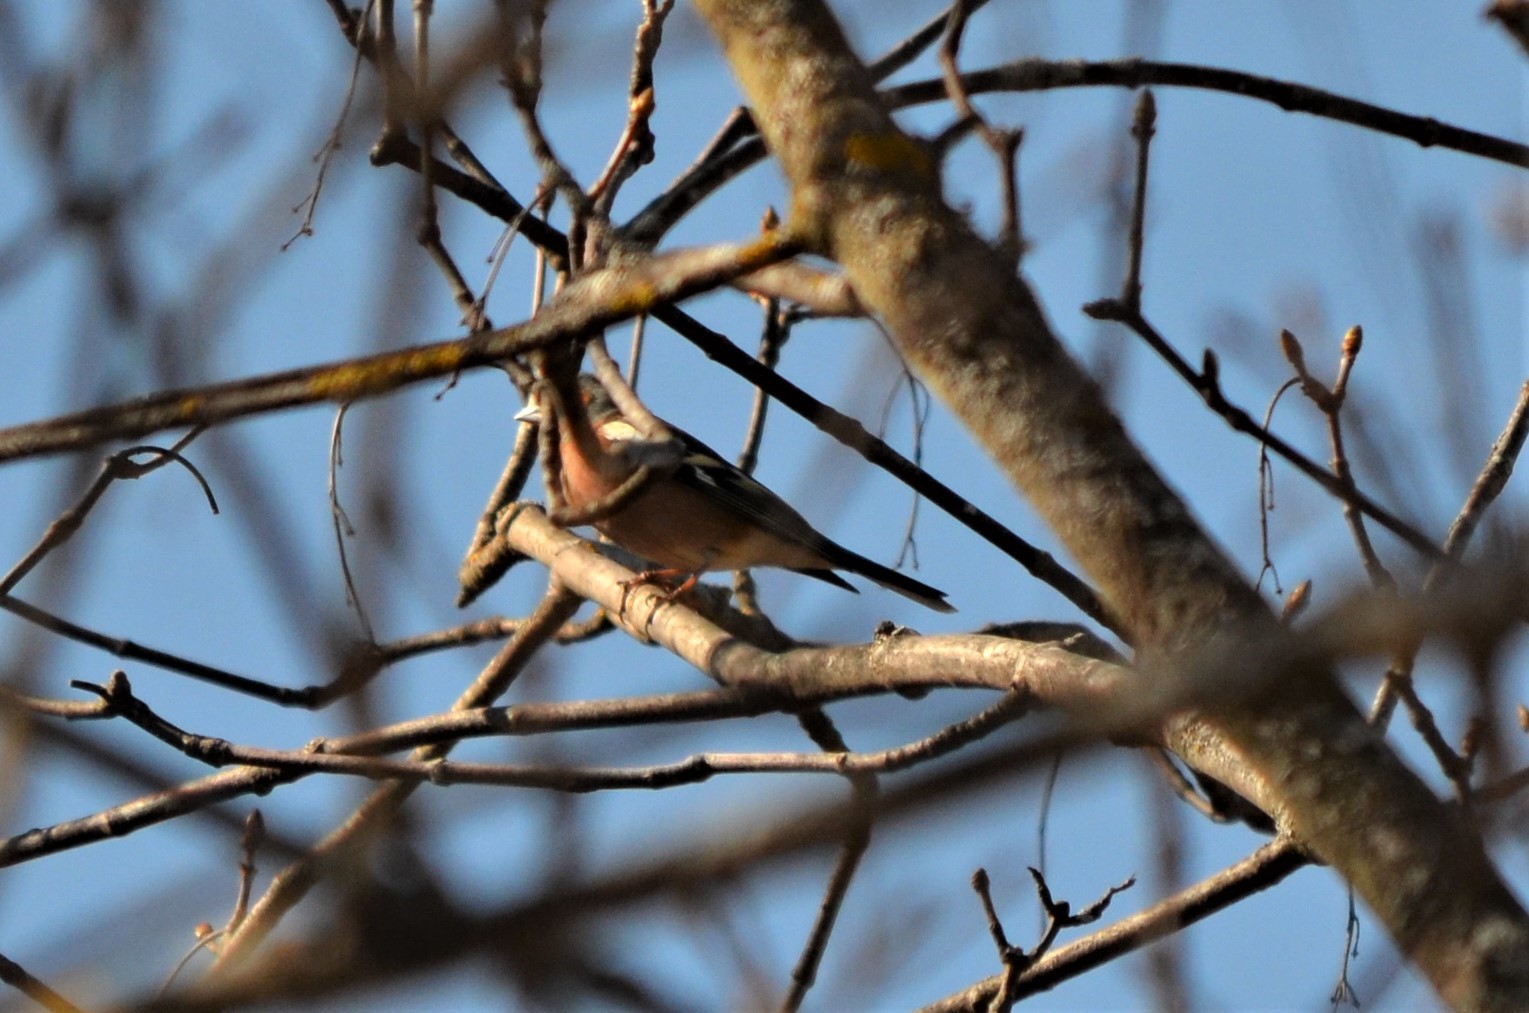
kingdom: Animalia
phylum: Chordata
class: Aves
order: Passeriformes
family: Fringillidae
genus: Fringilla
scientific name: Fringilla coelebs
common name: Common chaffinch
